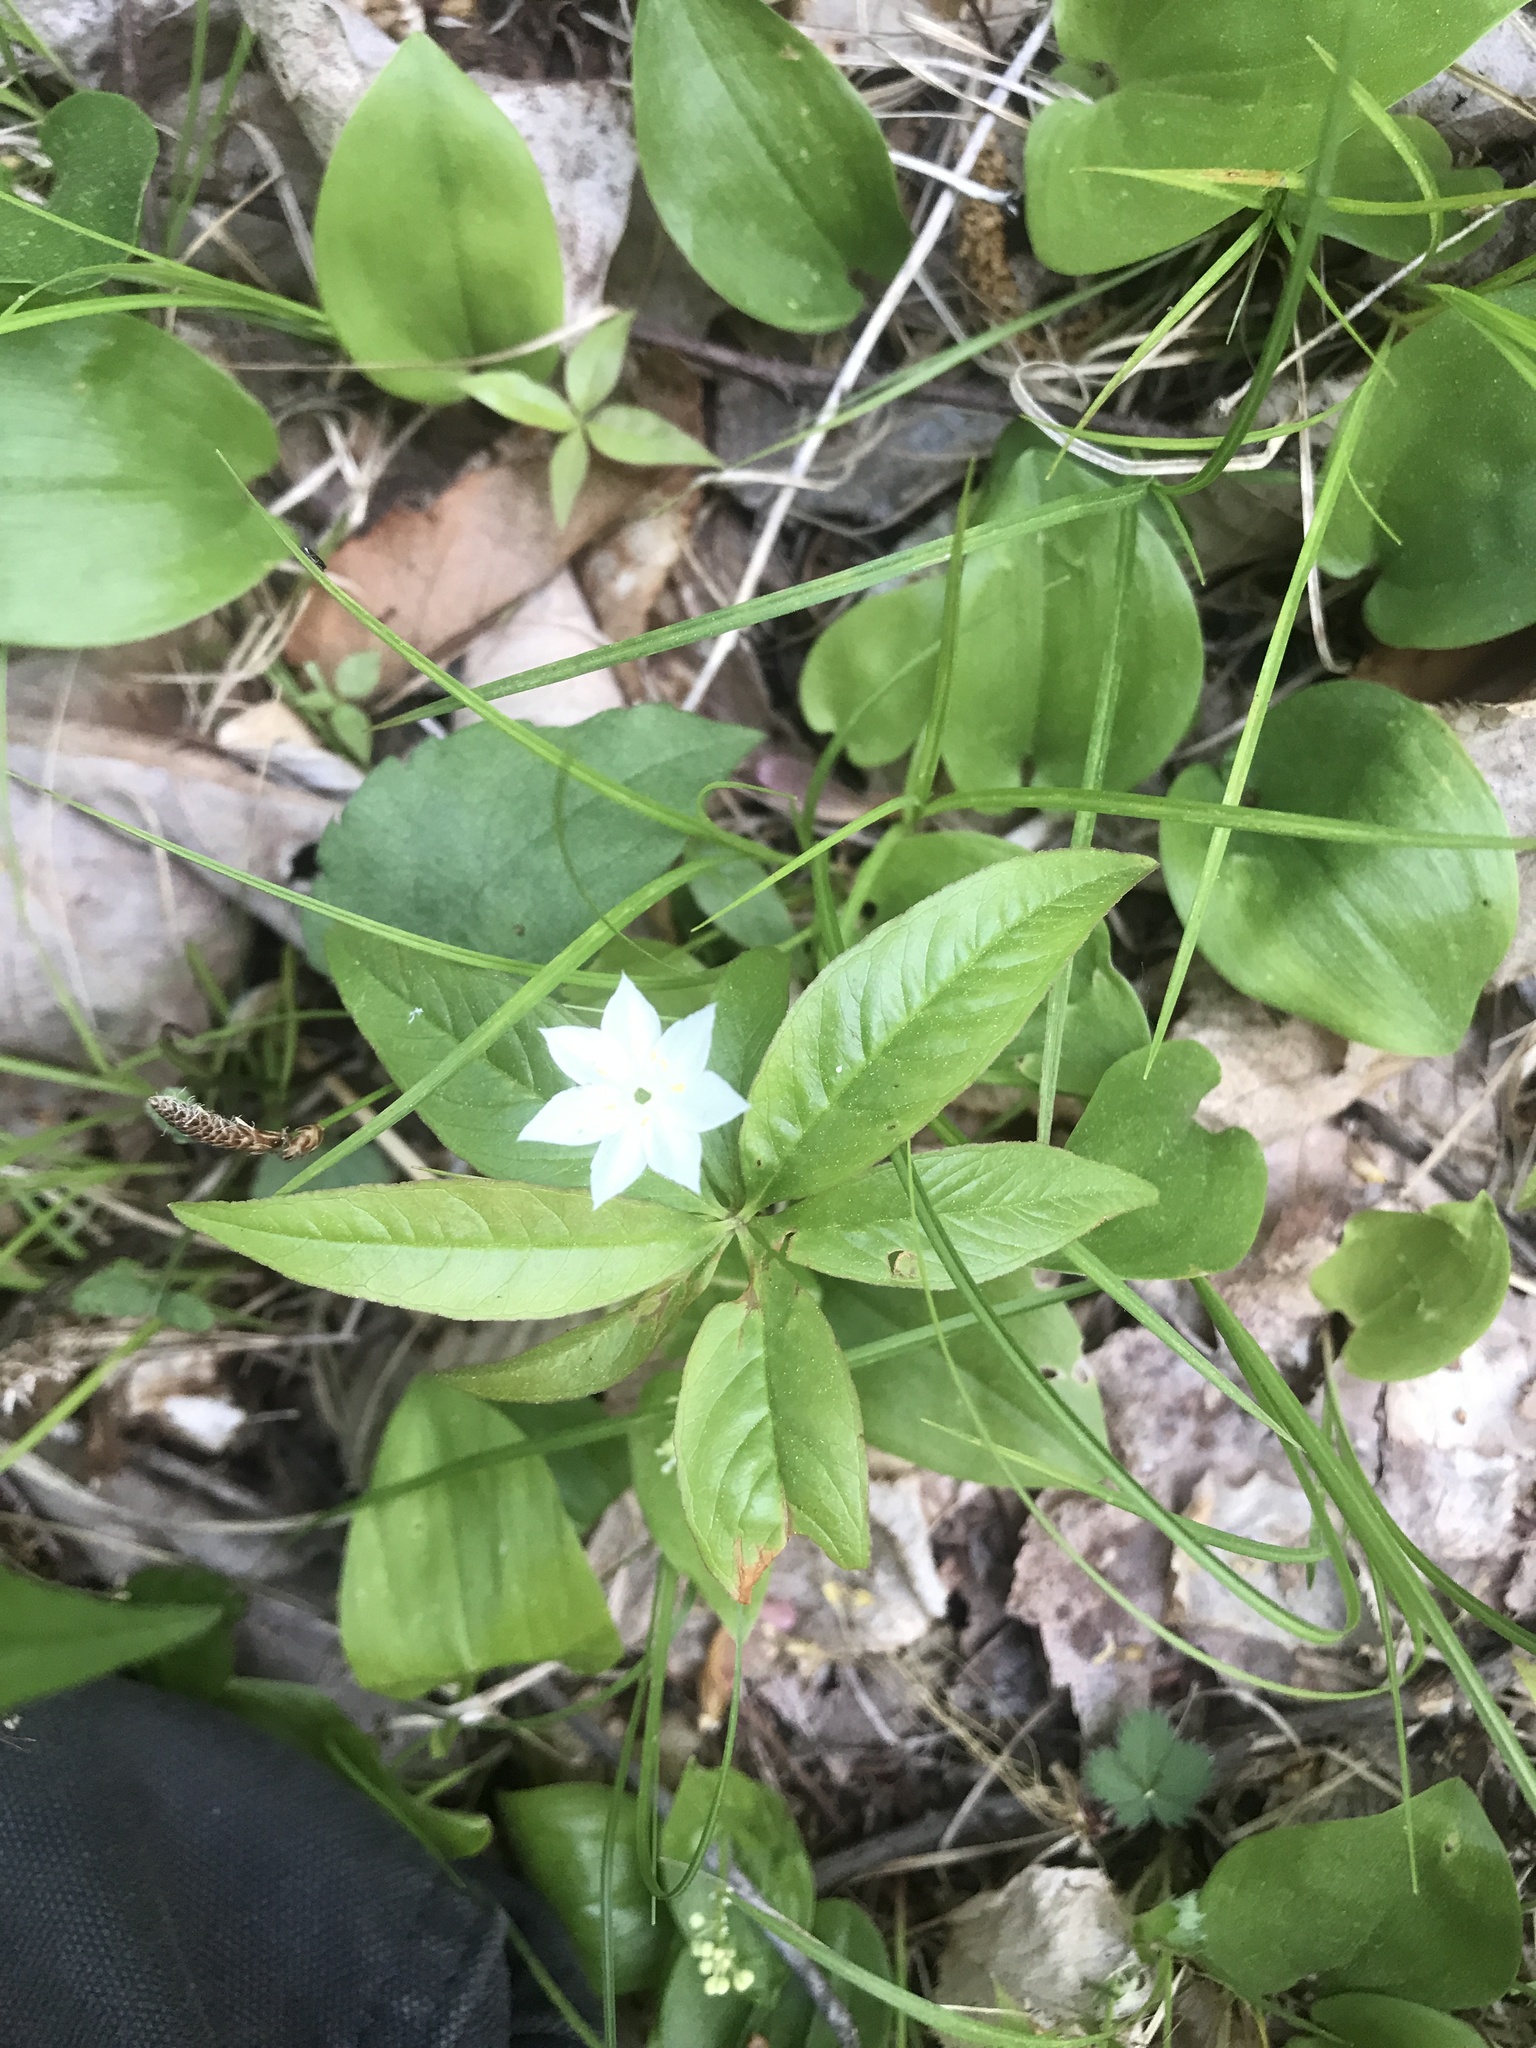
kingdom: Plantae
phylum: Tracheophyta
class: Magnoliopsida
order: Ericales
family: Primulaceae
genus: Lysimachia
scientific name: Lysimachia borealis
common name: American starflower
